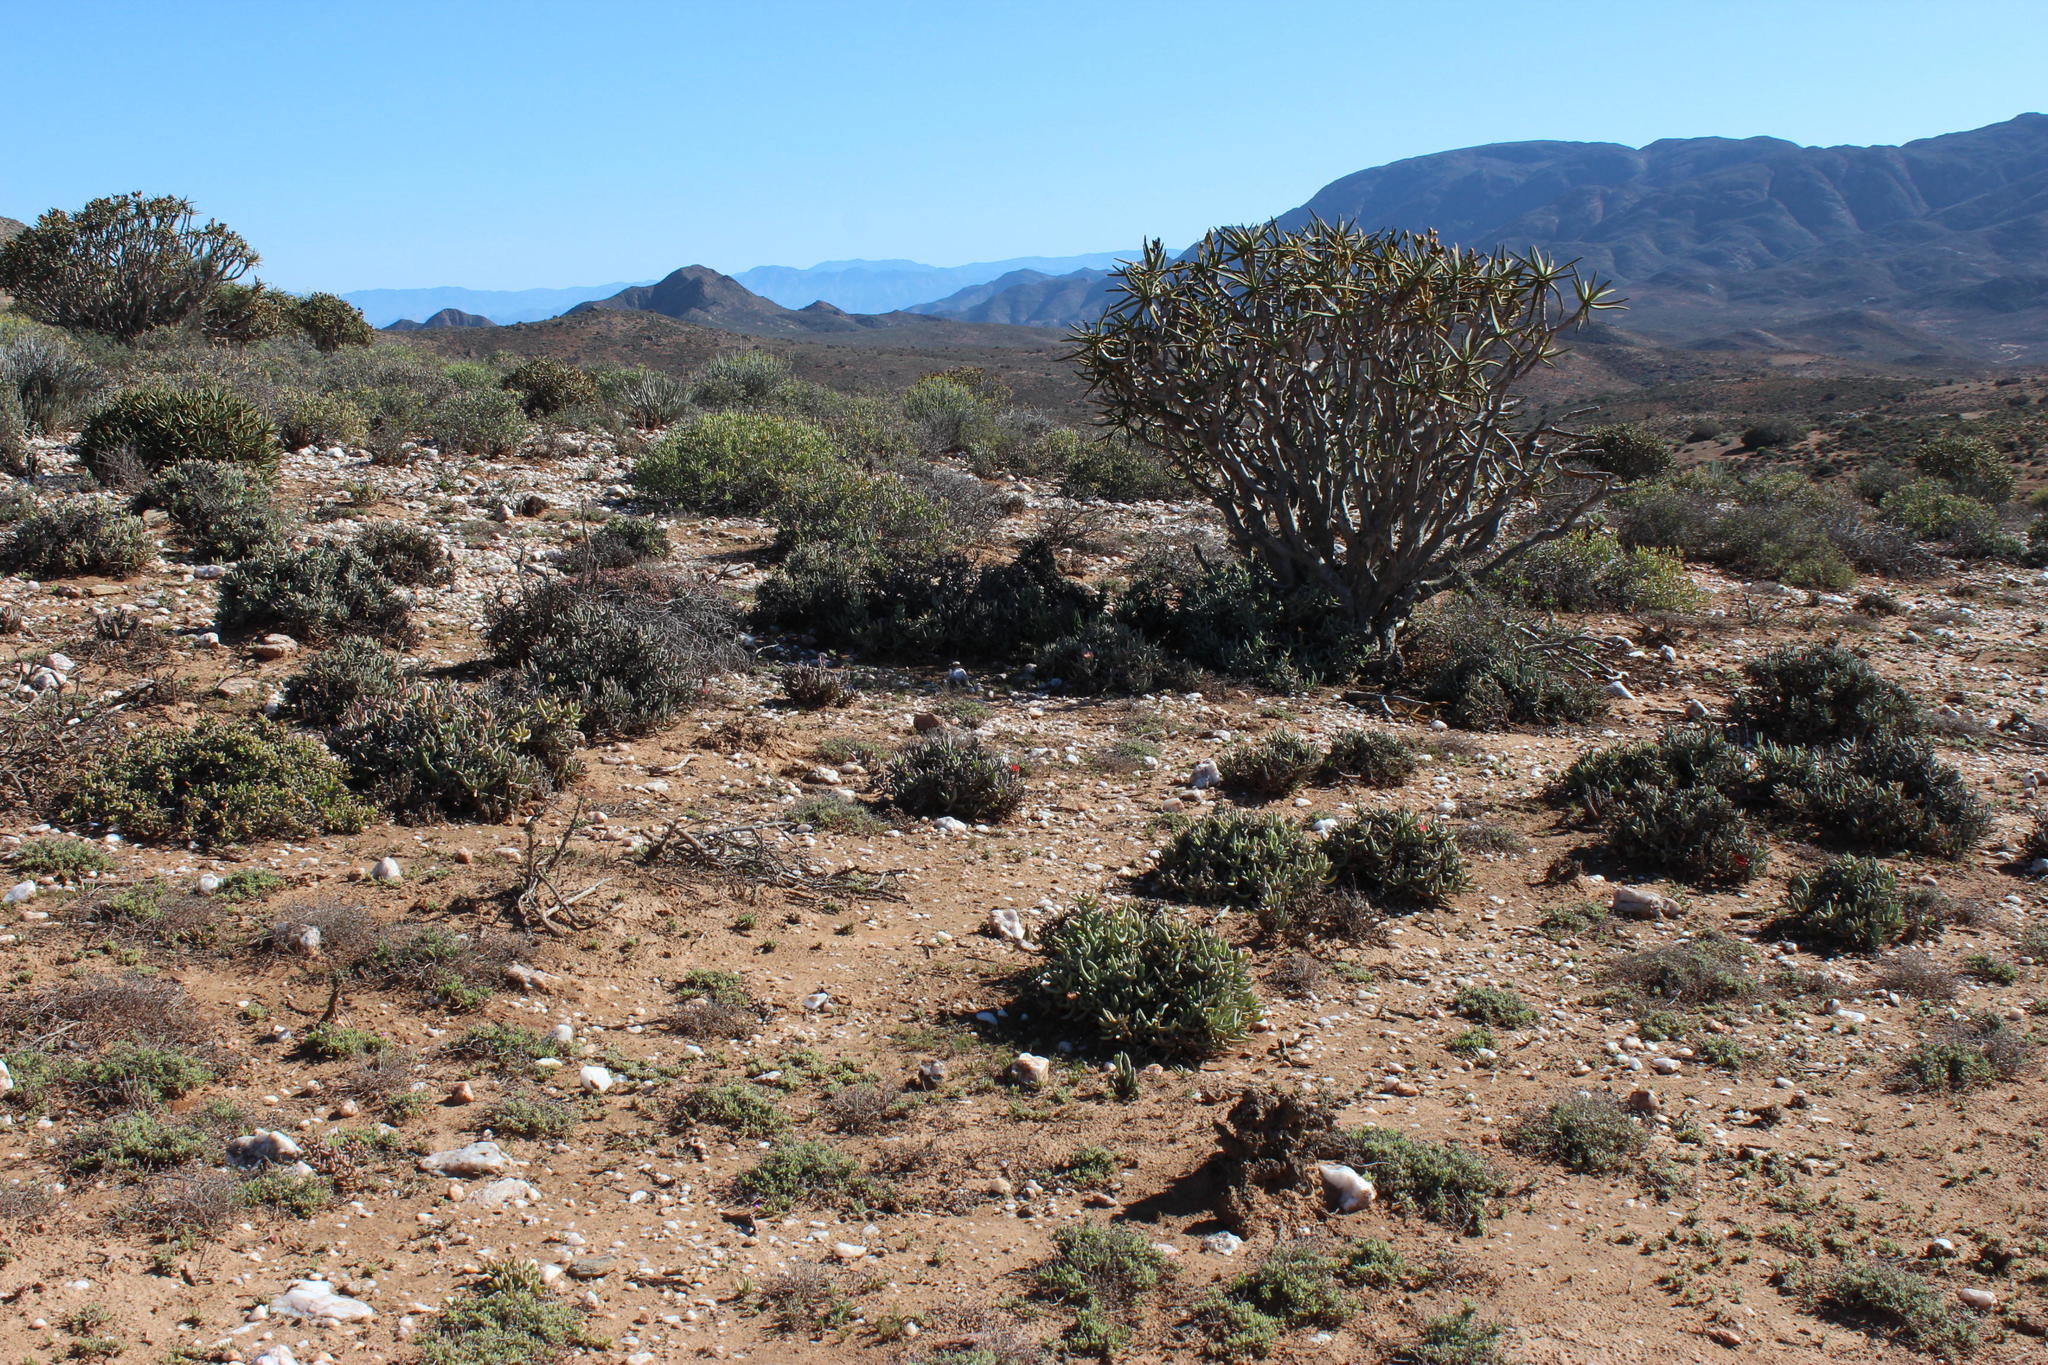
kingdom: Plantae
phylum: Tracheophyta
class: Liliopsida
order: Asparagales
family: Asphodelaceae
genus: Aloidendron
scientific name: Aloidendron ramosissimum
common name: Bush quiver tree
